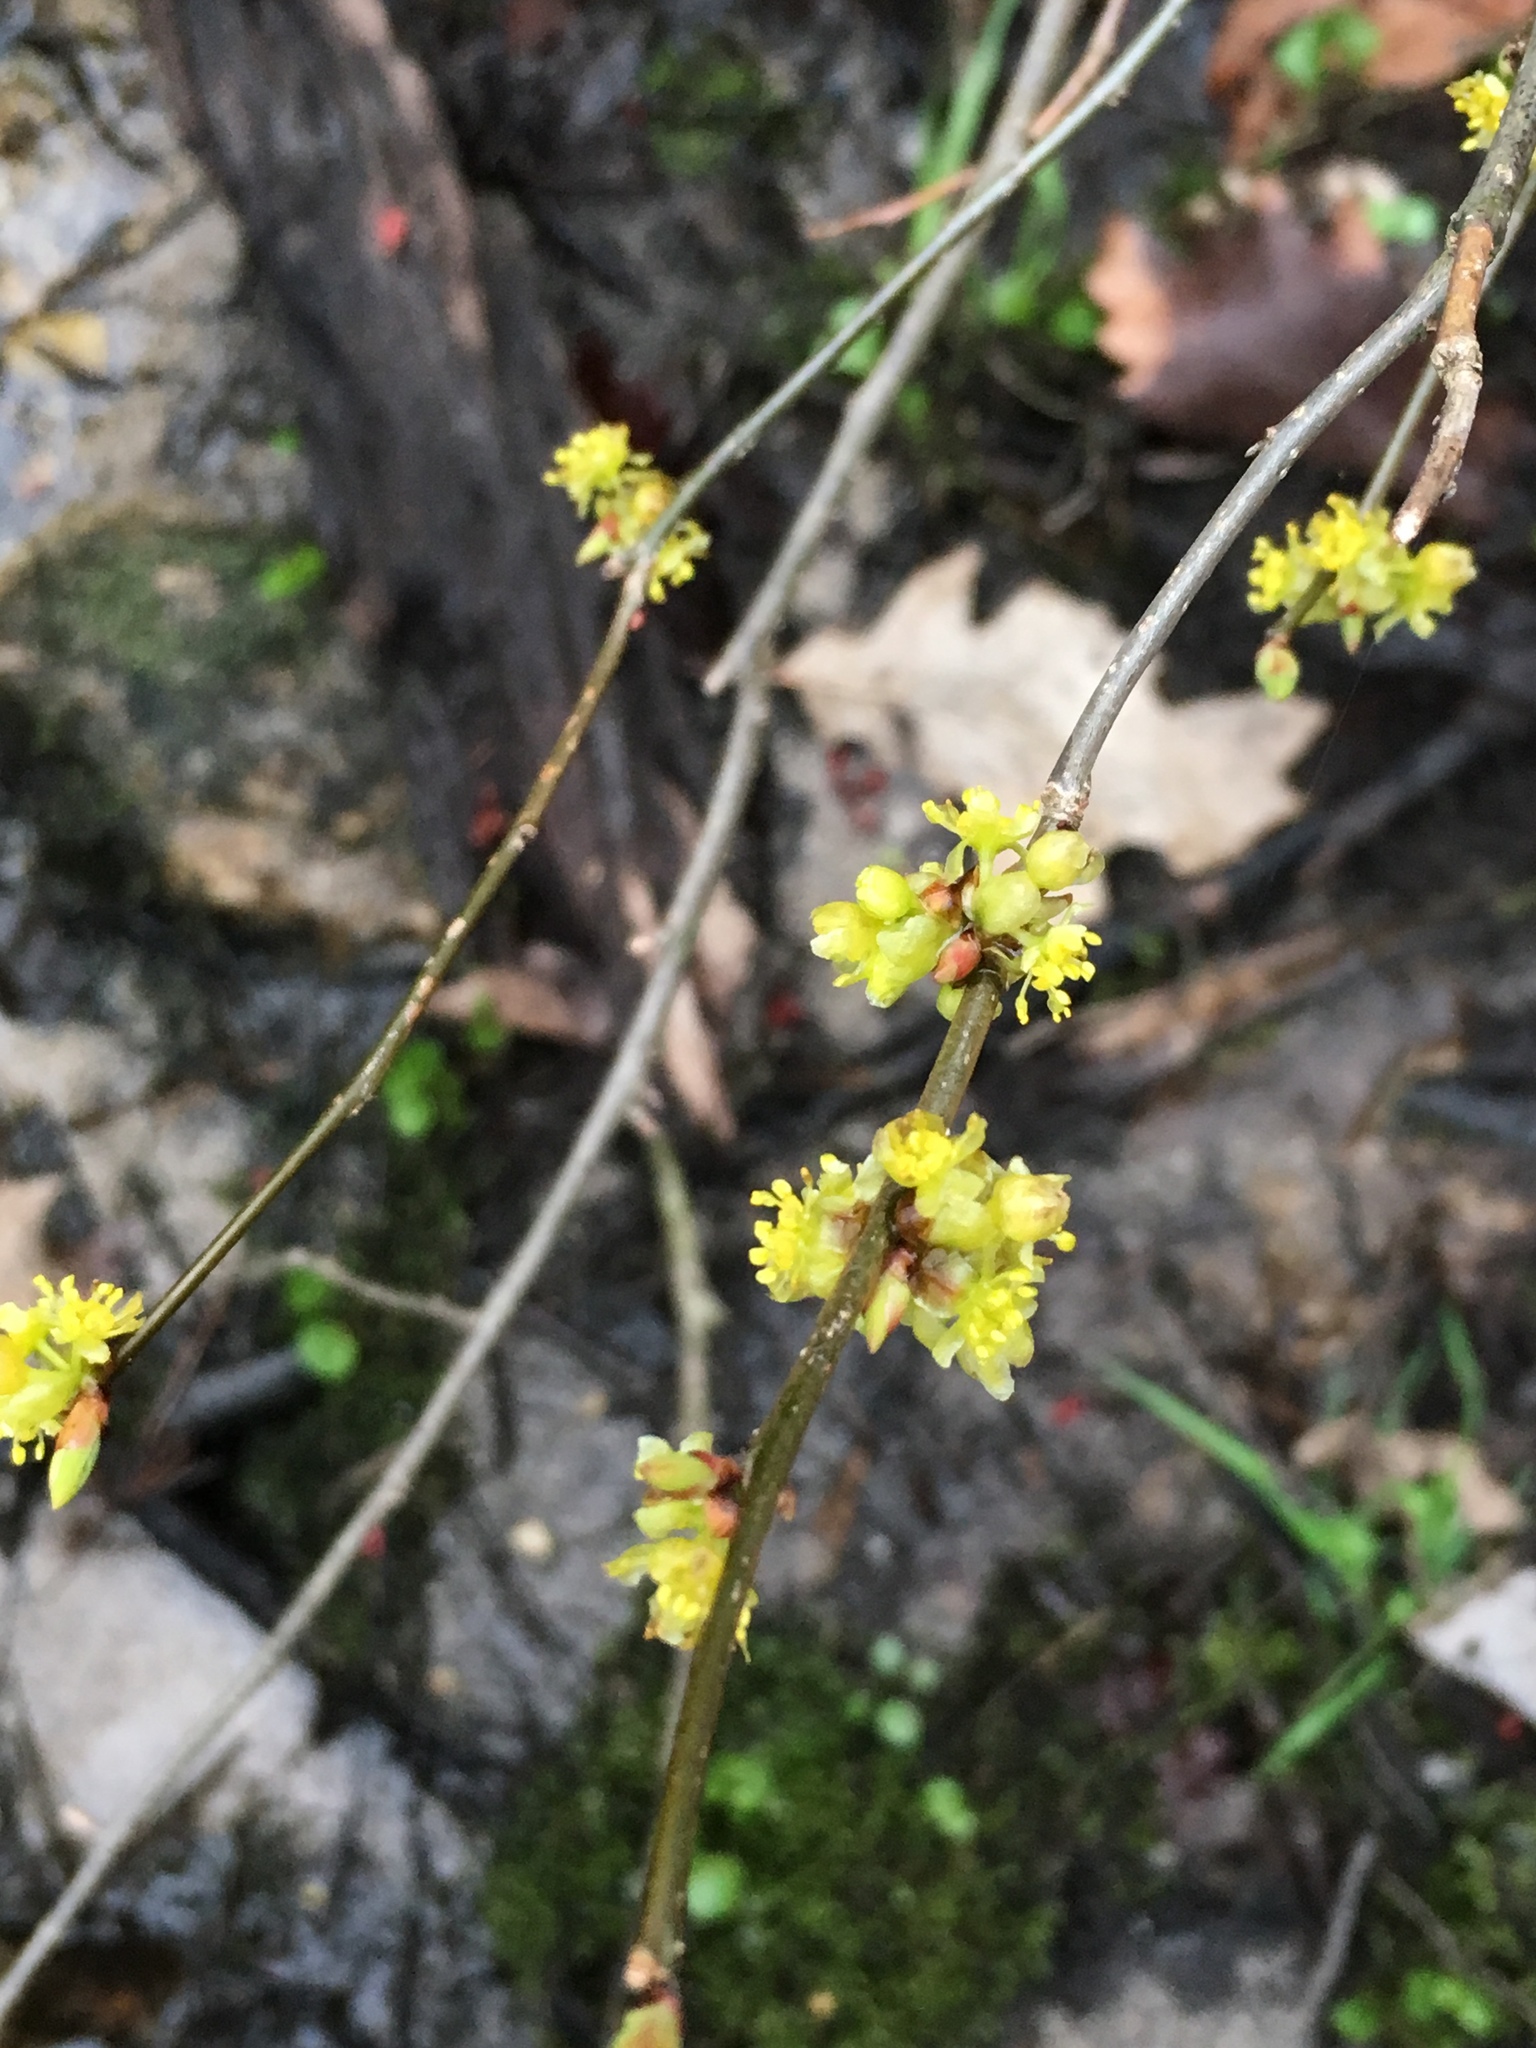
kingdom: Plantae
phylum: Tracheophyta
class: Magnoliopsida
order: Laurales
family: Lauraceae
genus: Lindera
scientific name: Lindera benzoin
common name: Spicebush
